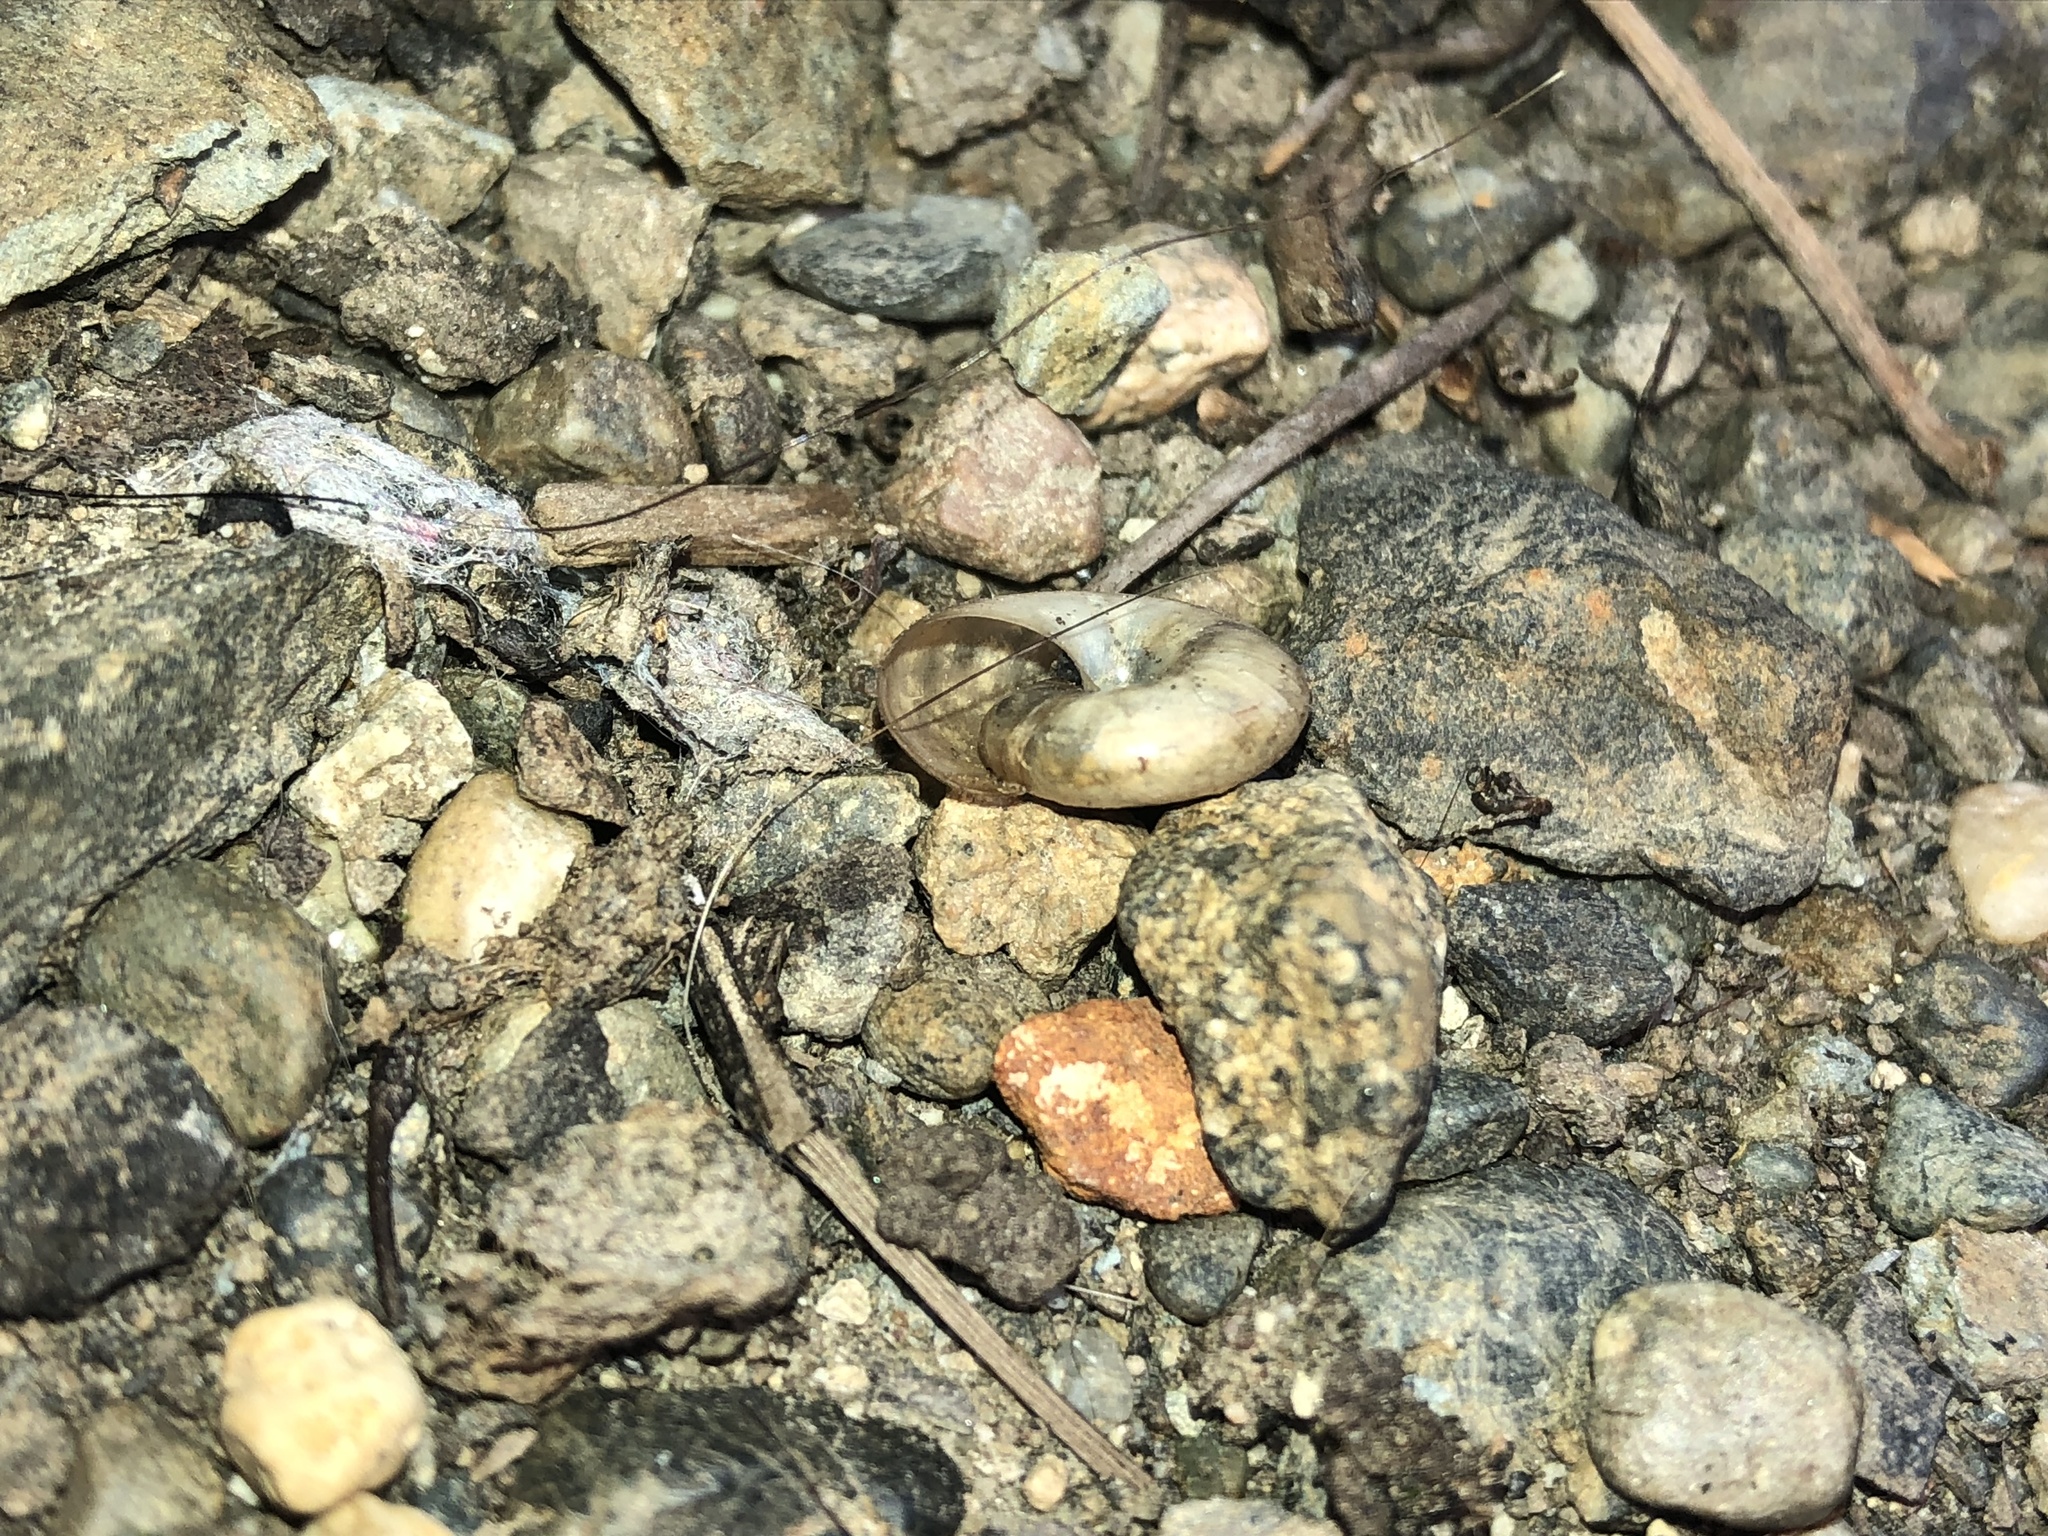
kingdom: Animalia
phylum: Mollusca
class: Gastropoda
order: Stylommatophora
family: Oxychilidae
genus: Oxychilus
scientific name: Oxychilus draparnaudi
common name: Draparnaud's glass snail
